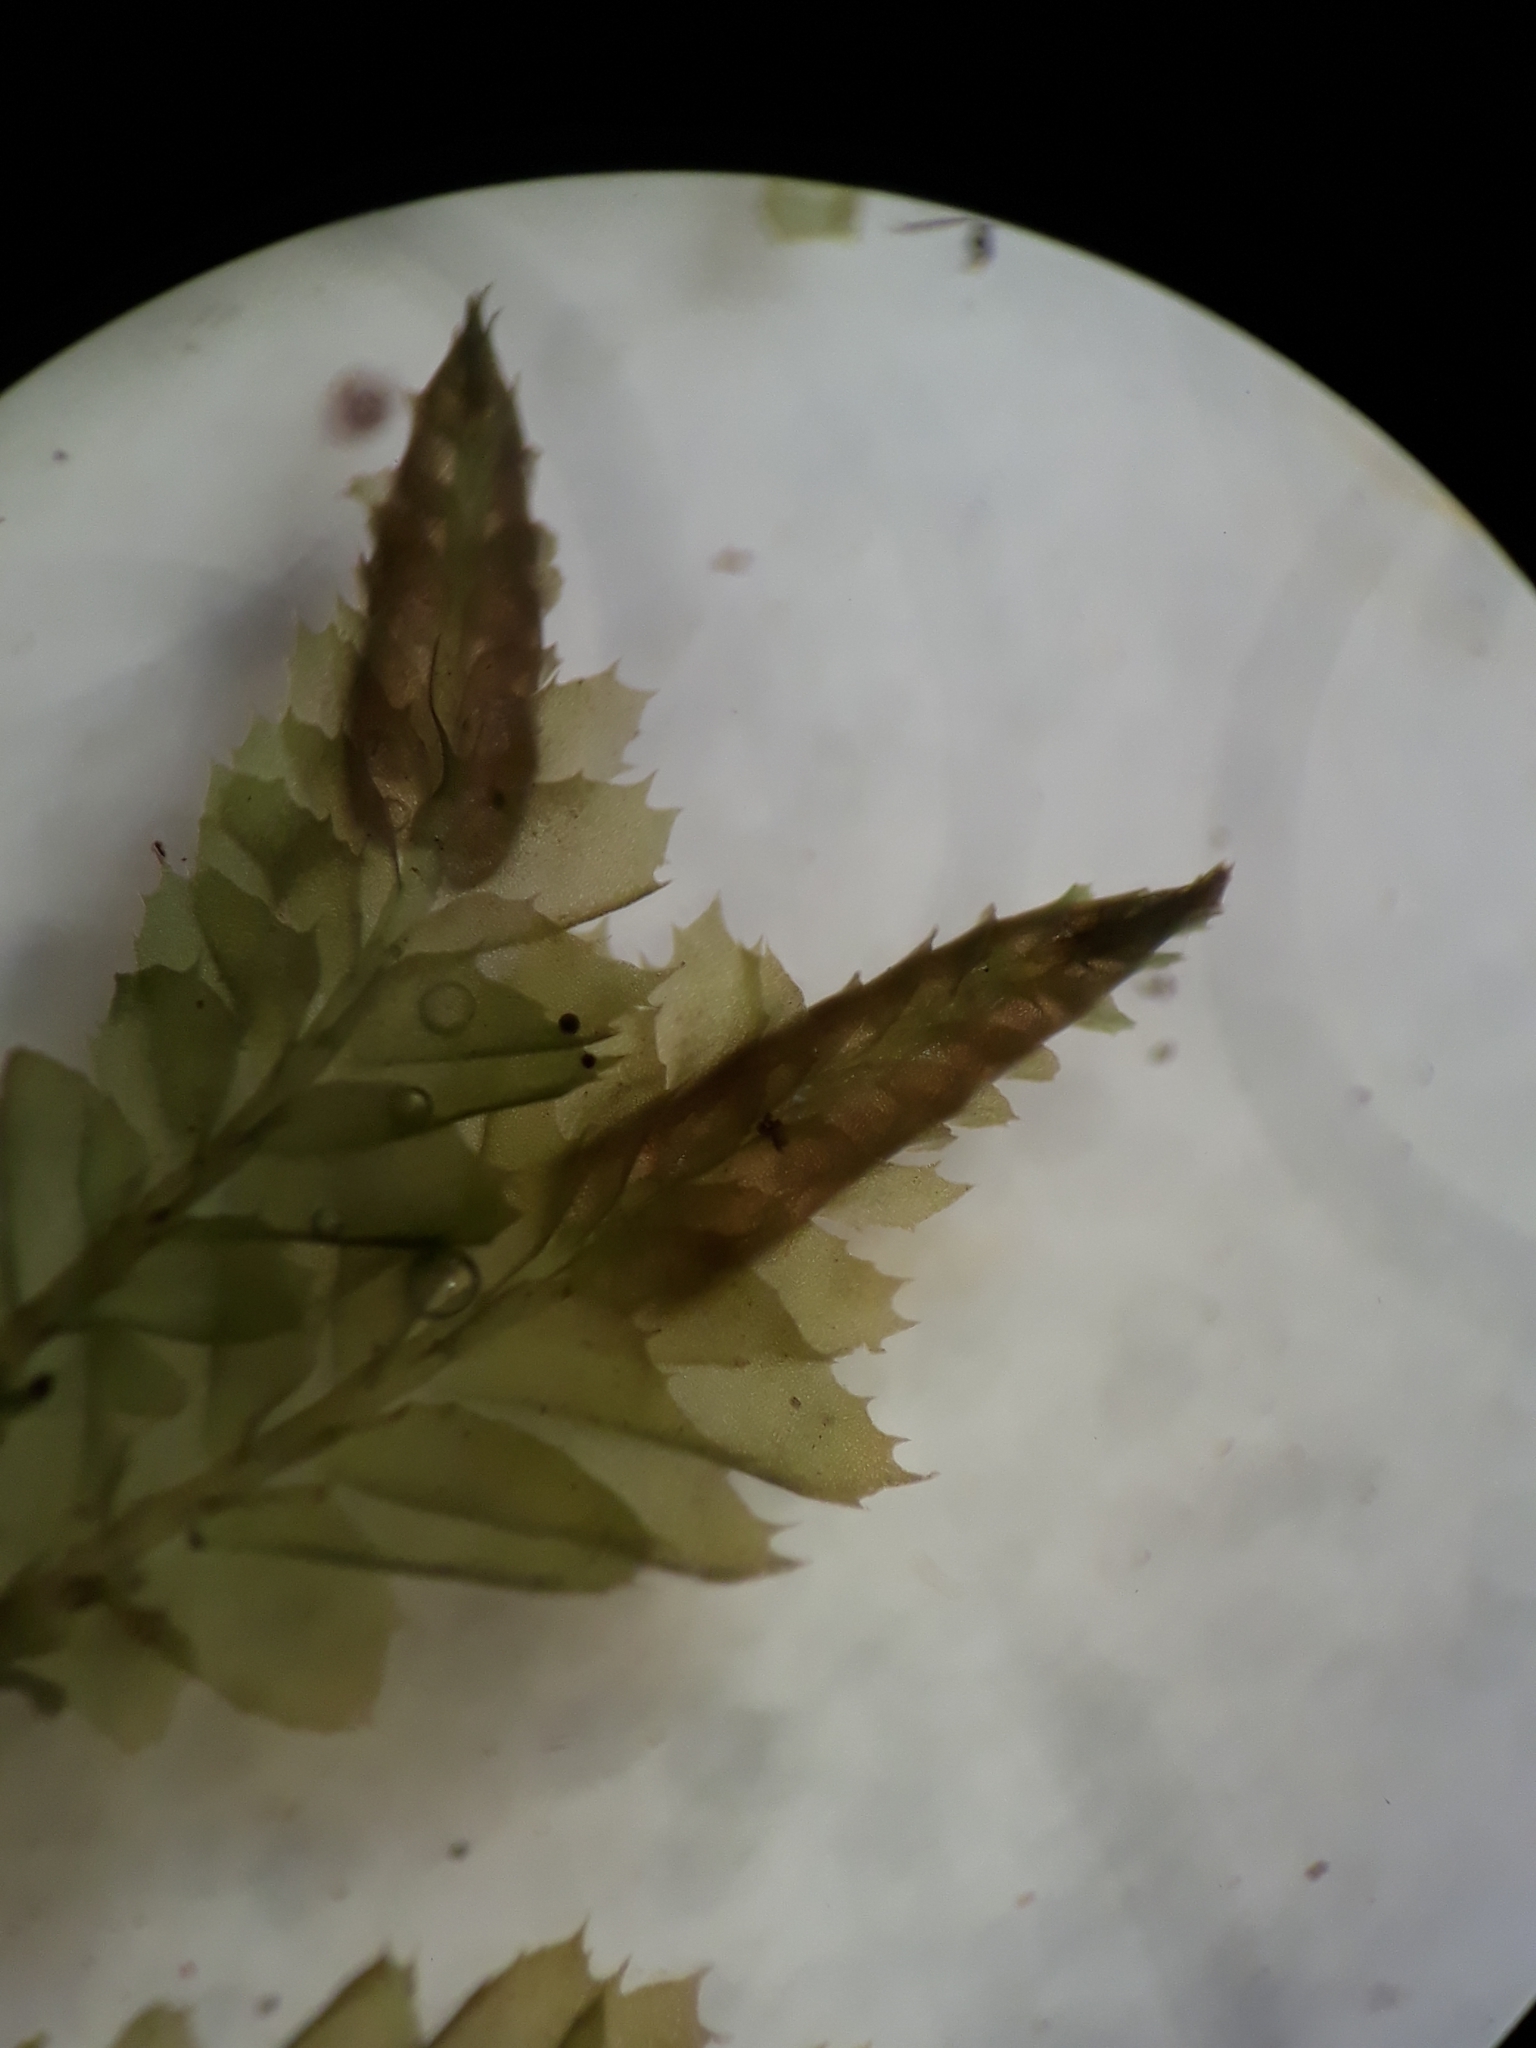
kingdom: Plantae
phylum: Marchantiophyta
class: Jungermanniopsida
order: Jungermanniales
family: Plagiochilaceae
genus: Plagiochila
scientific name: Plagiochila trispicata
